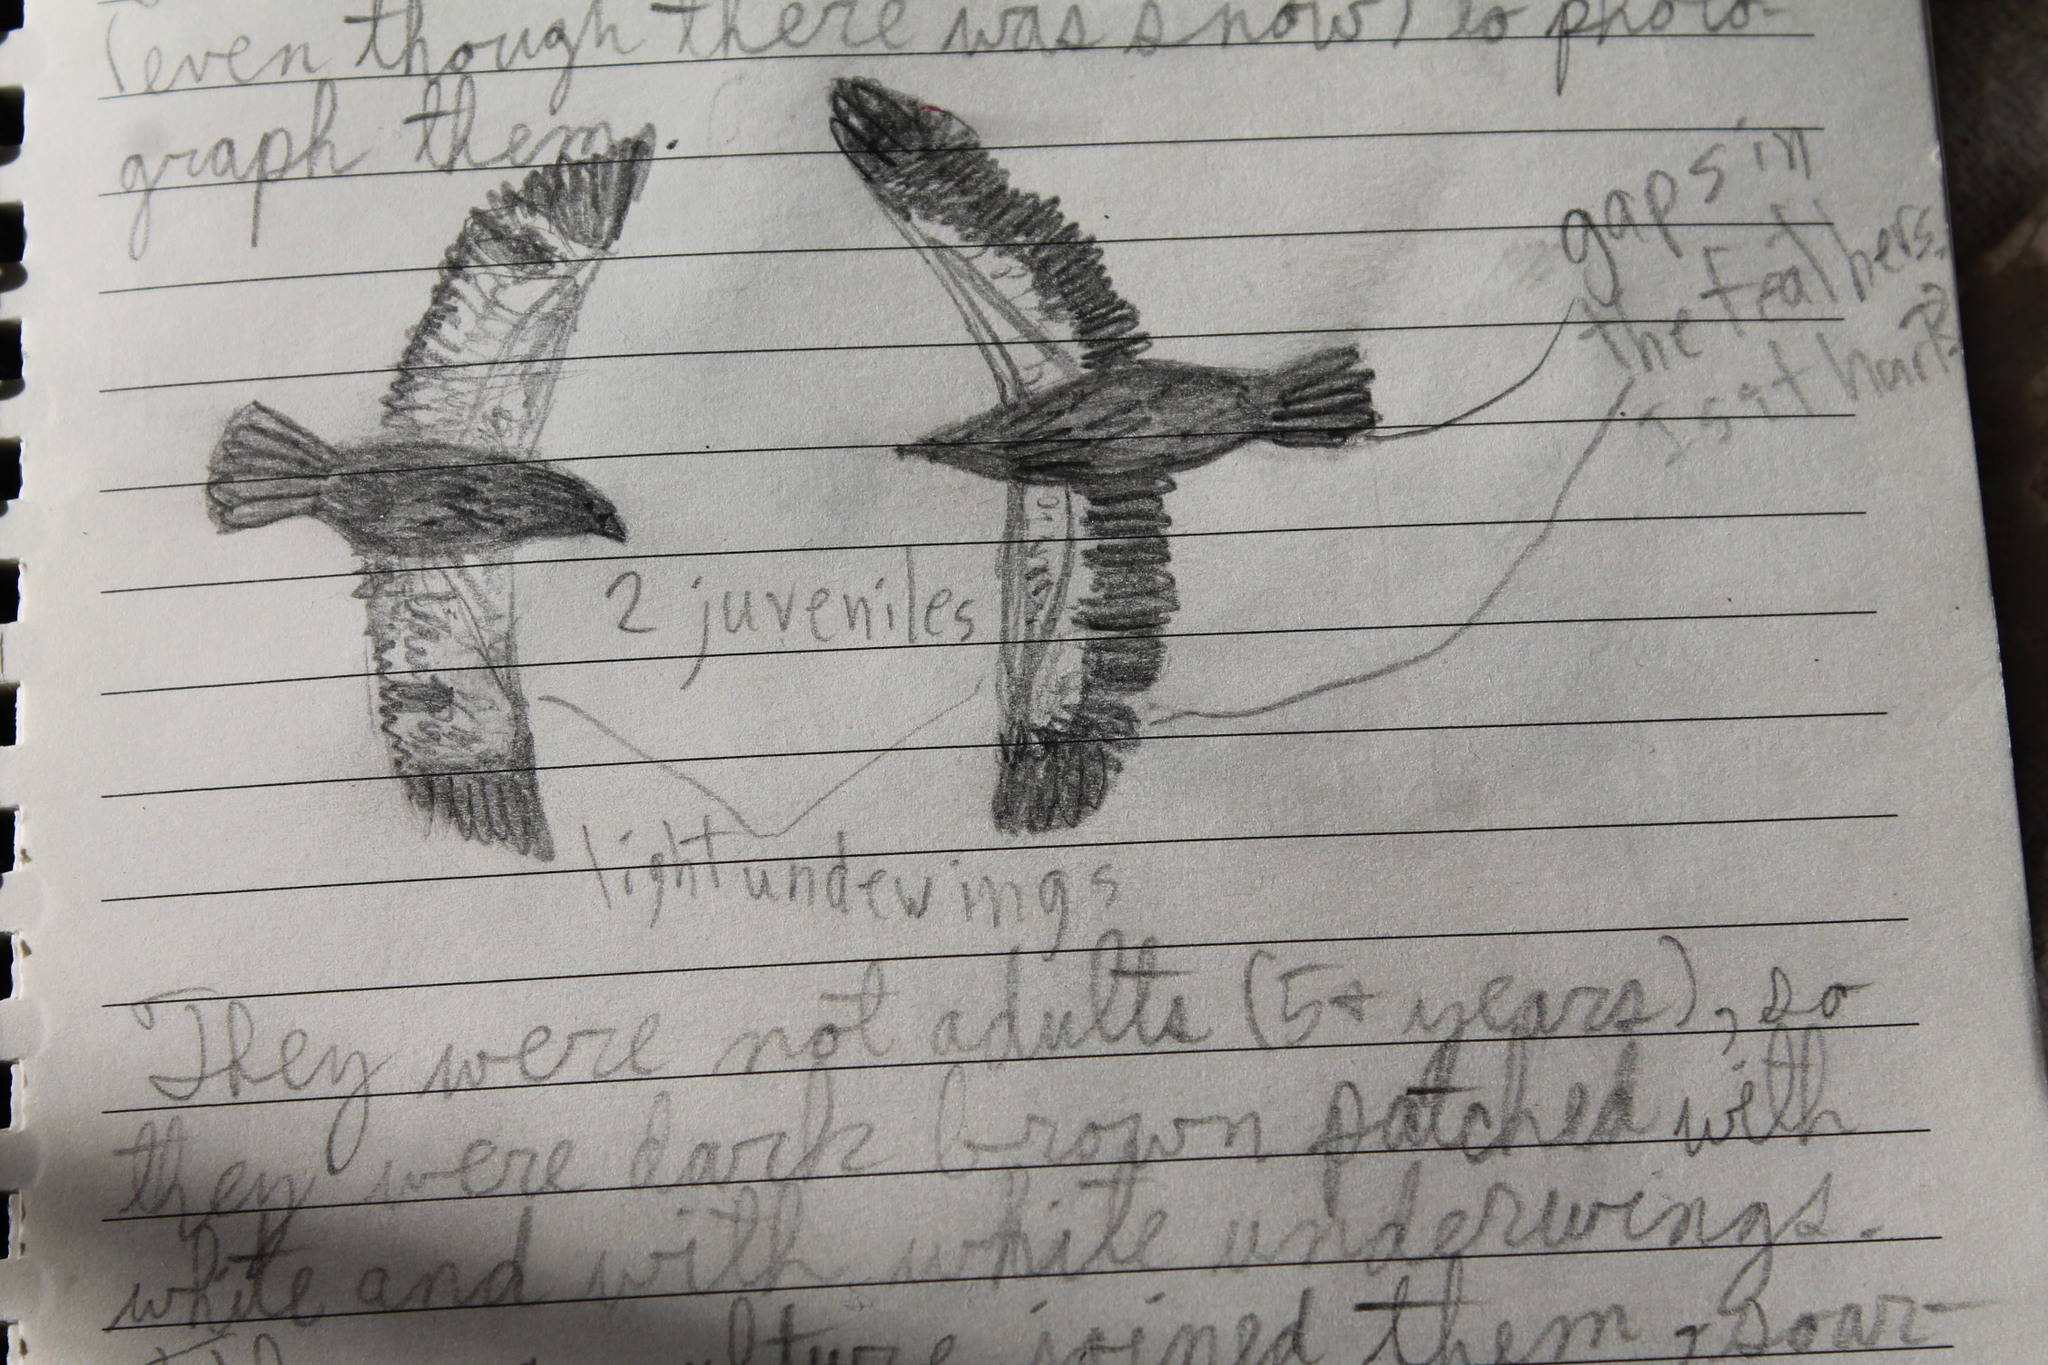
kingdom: Animalia
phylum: Chordata
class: Aves
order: Accipitriformes
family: Accipitridae
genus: Haliaeetus
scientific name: Haliaeetus leucocephalus
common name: Bald eagle
